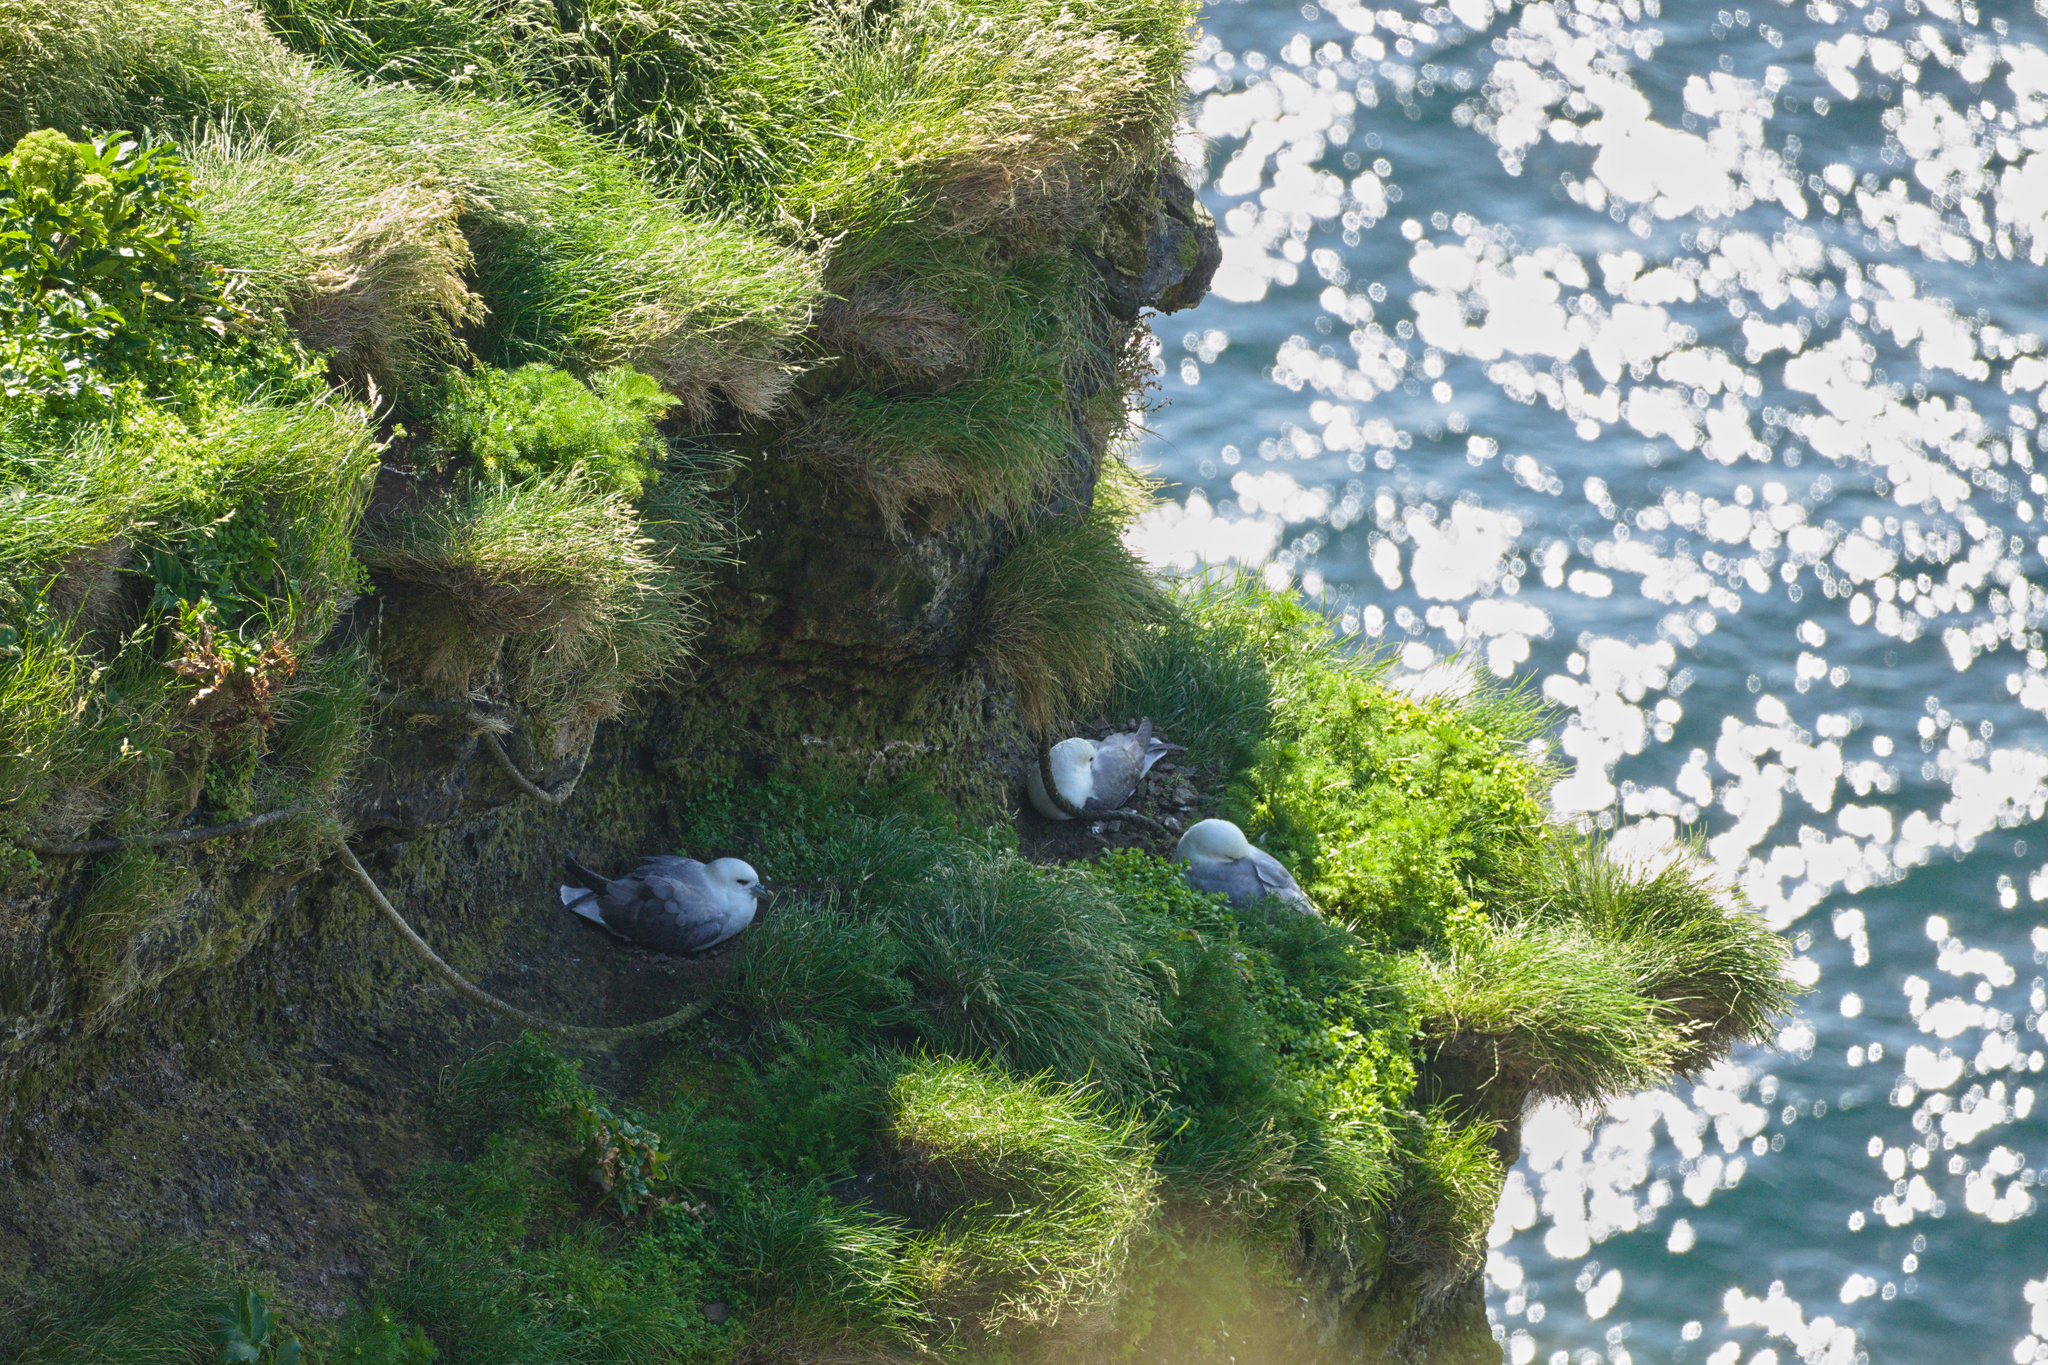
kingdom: Animalia
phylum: Chordata
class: Aves
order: Procellariiformes
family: Procellariidae
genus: Fulmarus
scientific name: Fulmarus glacialis
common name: Northern fulmar
